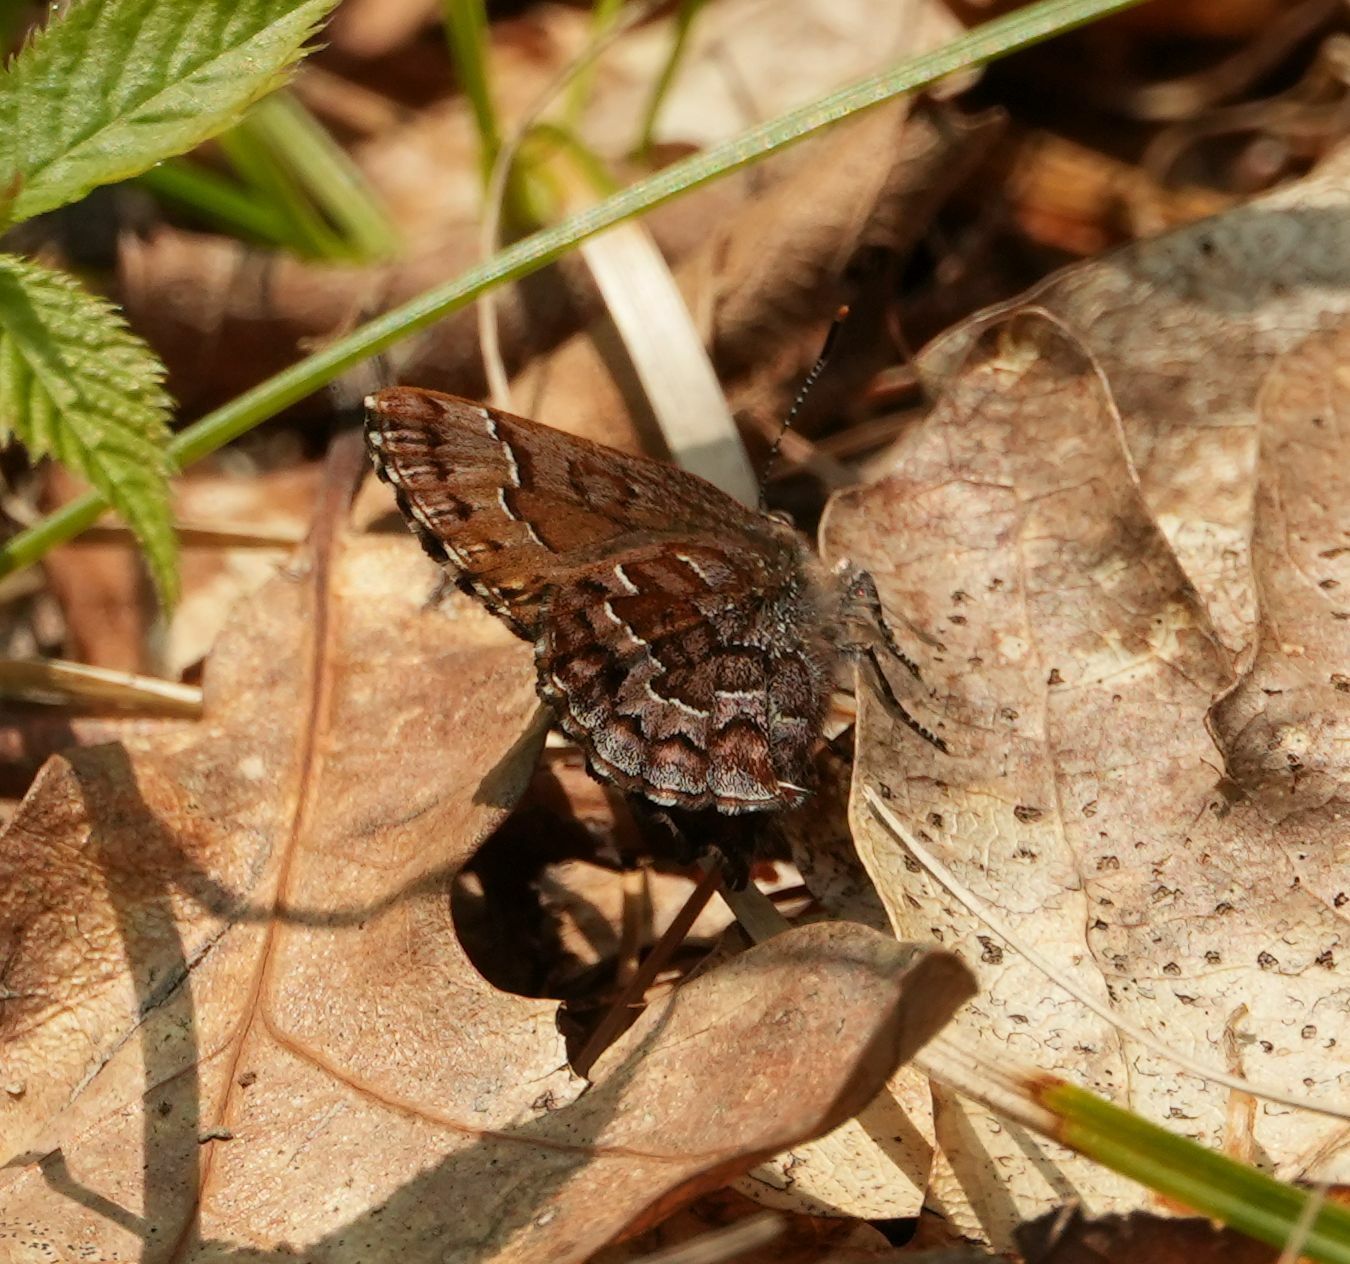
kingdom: Animalia
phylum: Arthropoda
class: Insecta
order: Lepidoptera
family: Lycaenidae
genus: Incisalia
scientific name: Incisalia niphon
